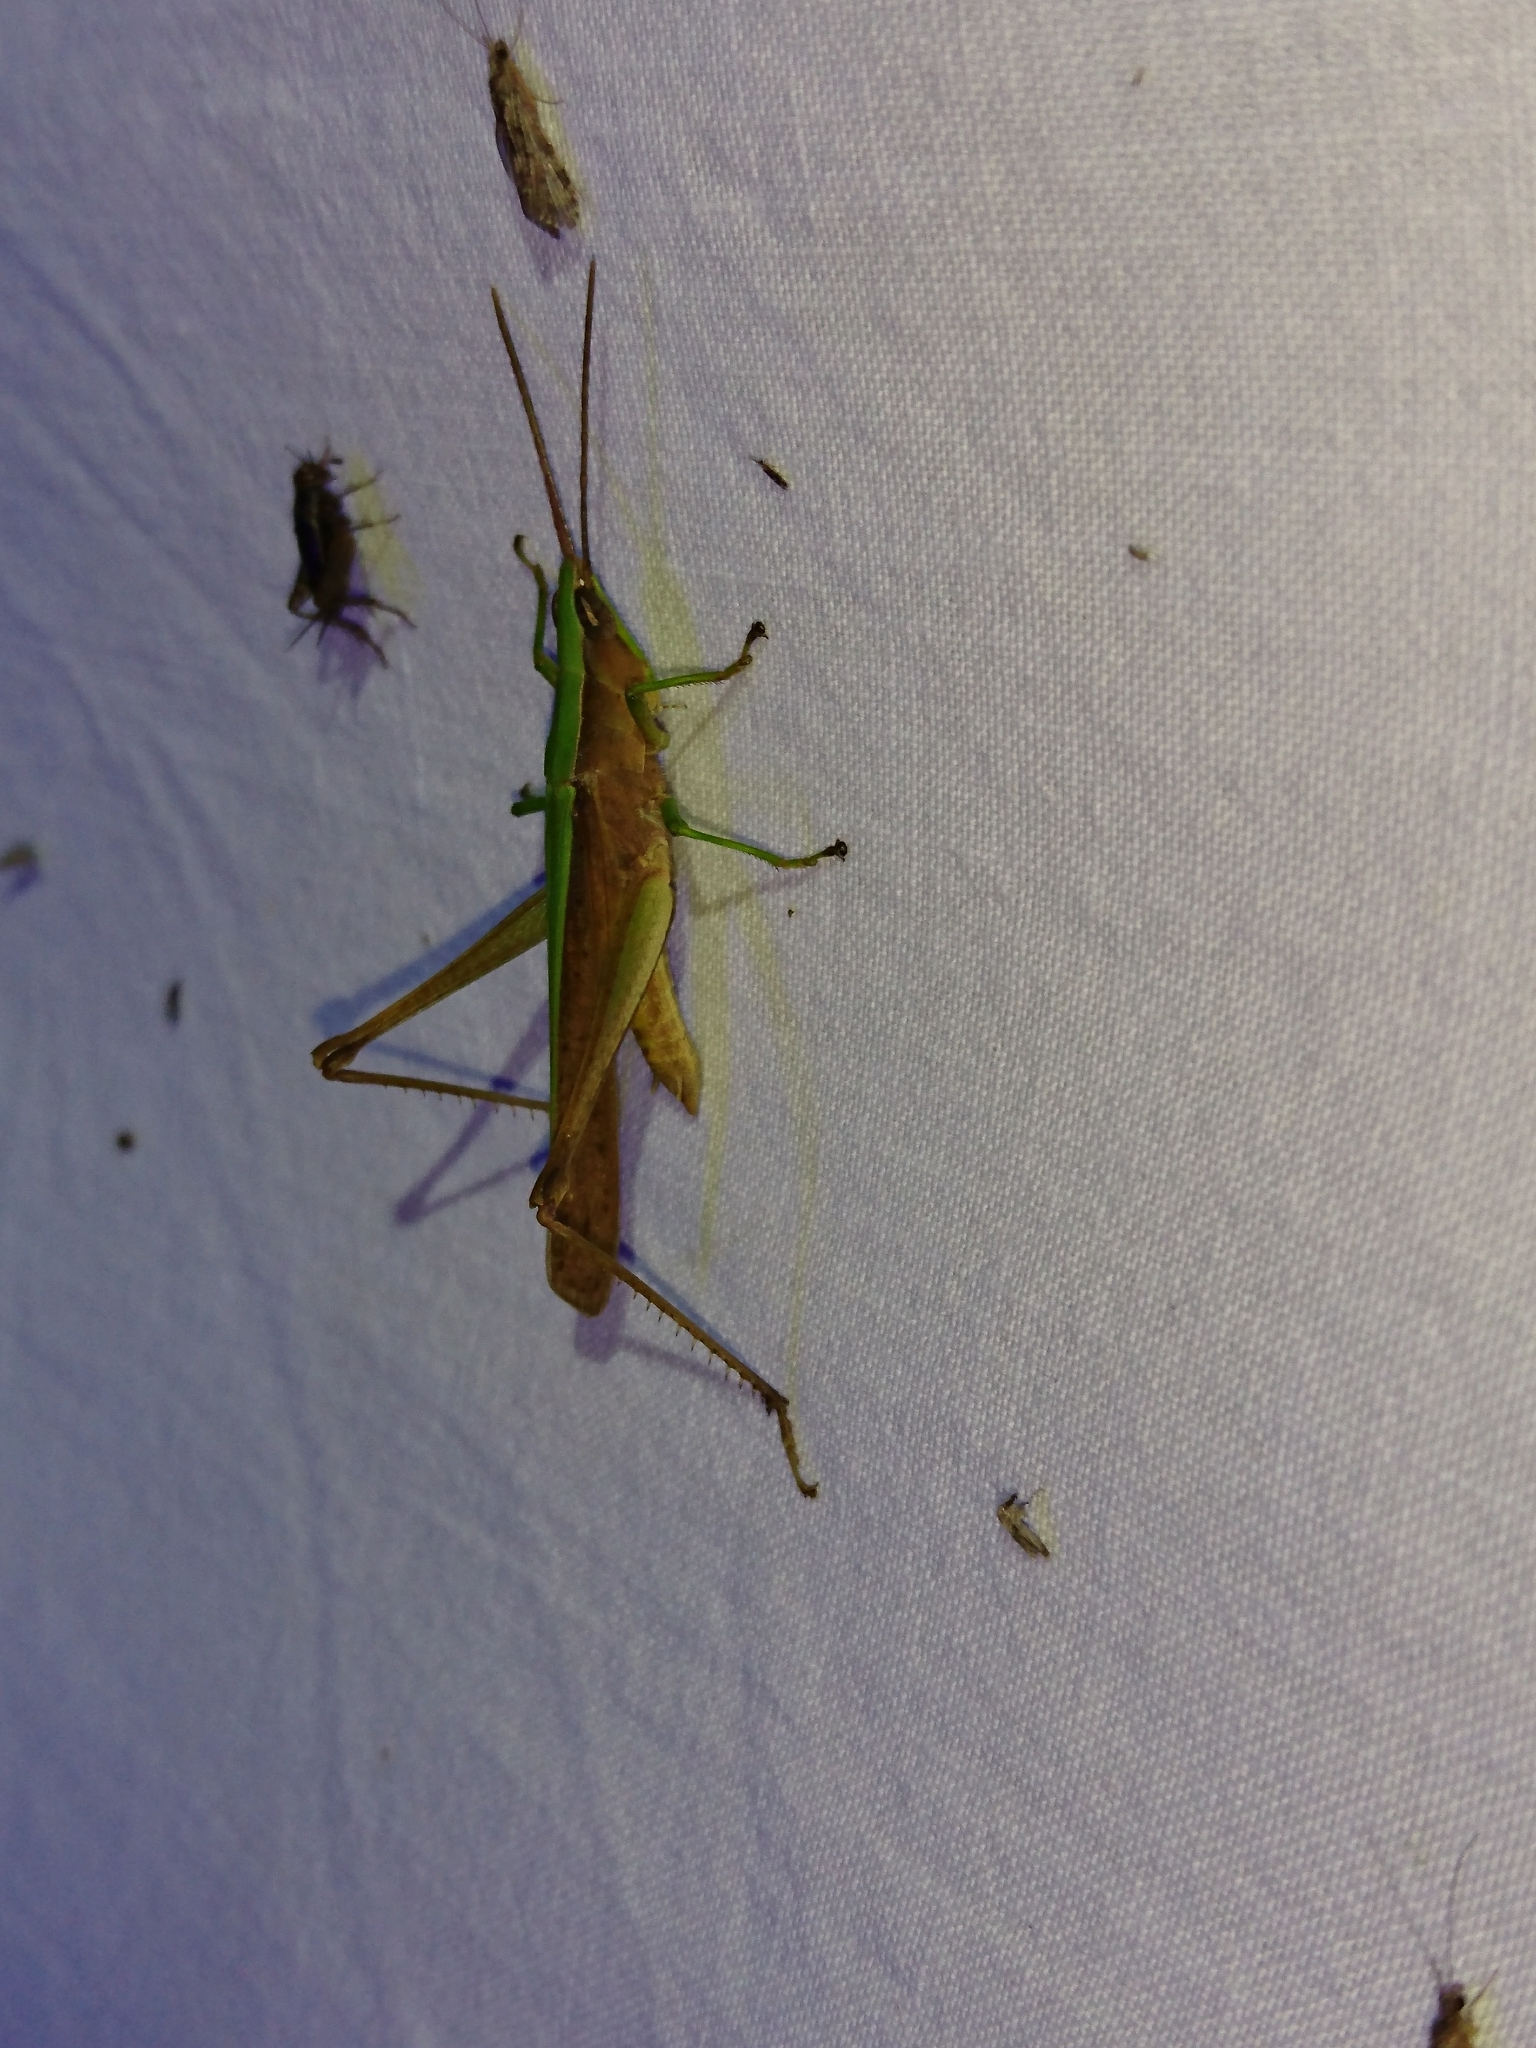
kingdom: Animalia
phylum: Arthropoda
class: Insecta
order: Orthoptera
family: Acrididae
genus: Metaleptea
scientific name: Metaleptea brevicornis
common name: Clipped-wing grasshopper
